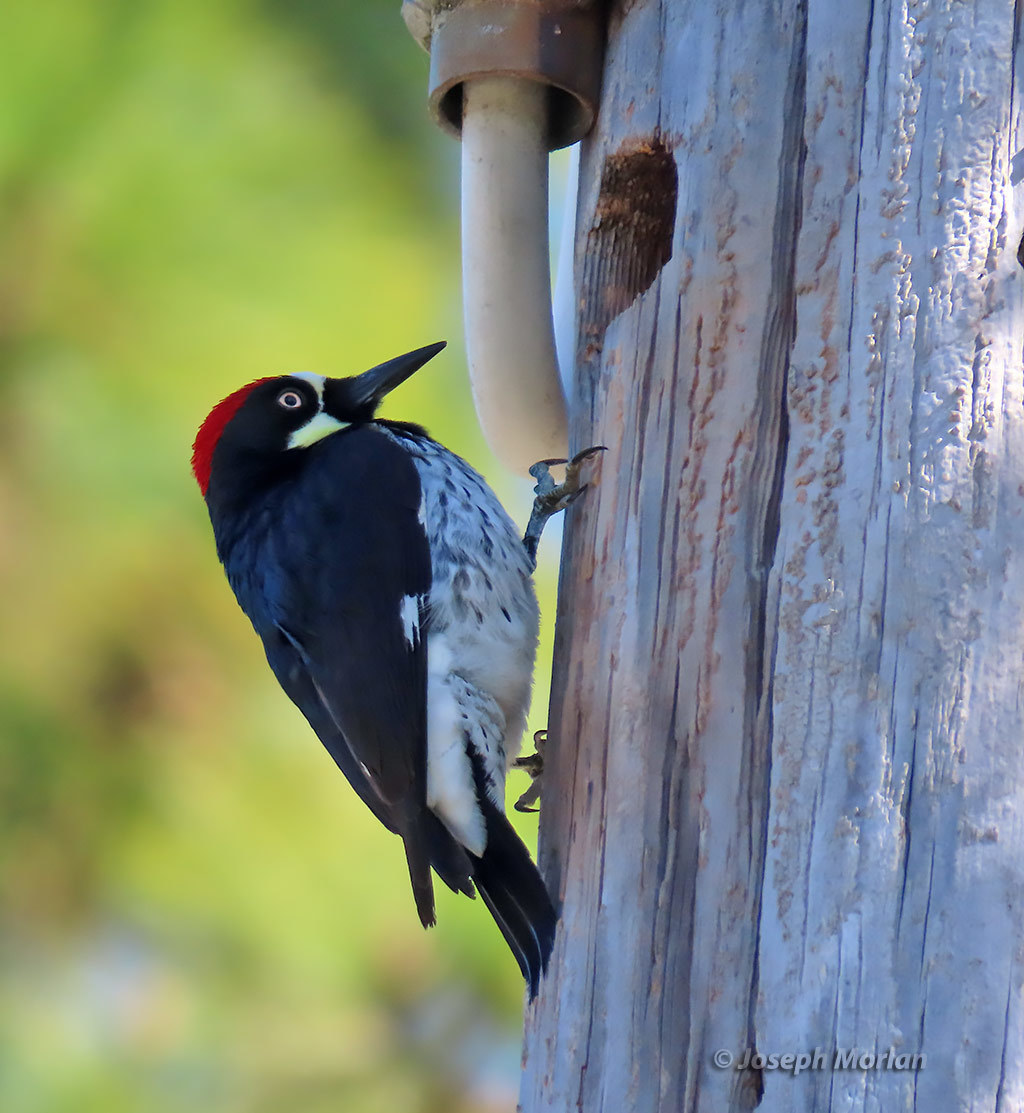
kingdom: Animalia
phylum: Chordata
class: Aves
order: Piciformes
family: Picidae
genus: Melanerpes
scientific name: Melanerpes formicivorus
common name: Acorn woodpecker
